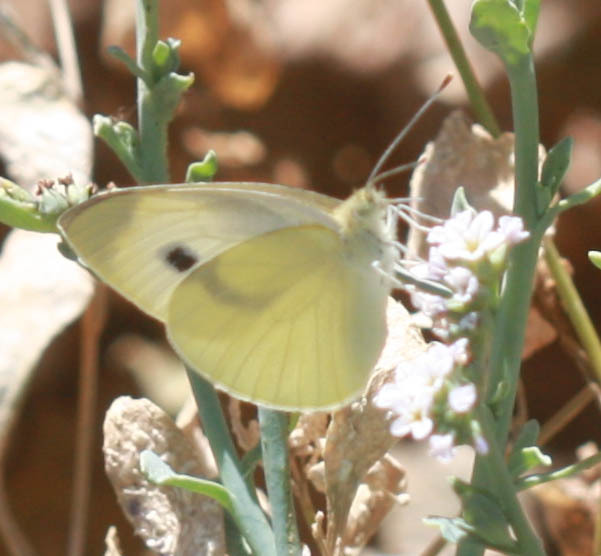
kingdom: Animalia
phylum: Arthropoda
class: Insecta
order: Lepidoptera
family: Pieridae
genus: Pieris
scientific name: Pieris rapae
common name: Small white
